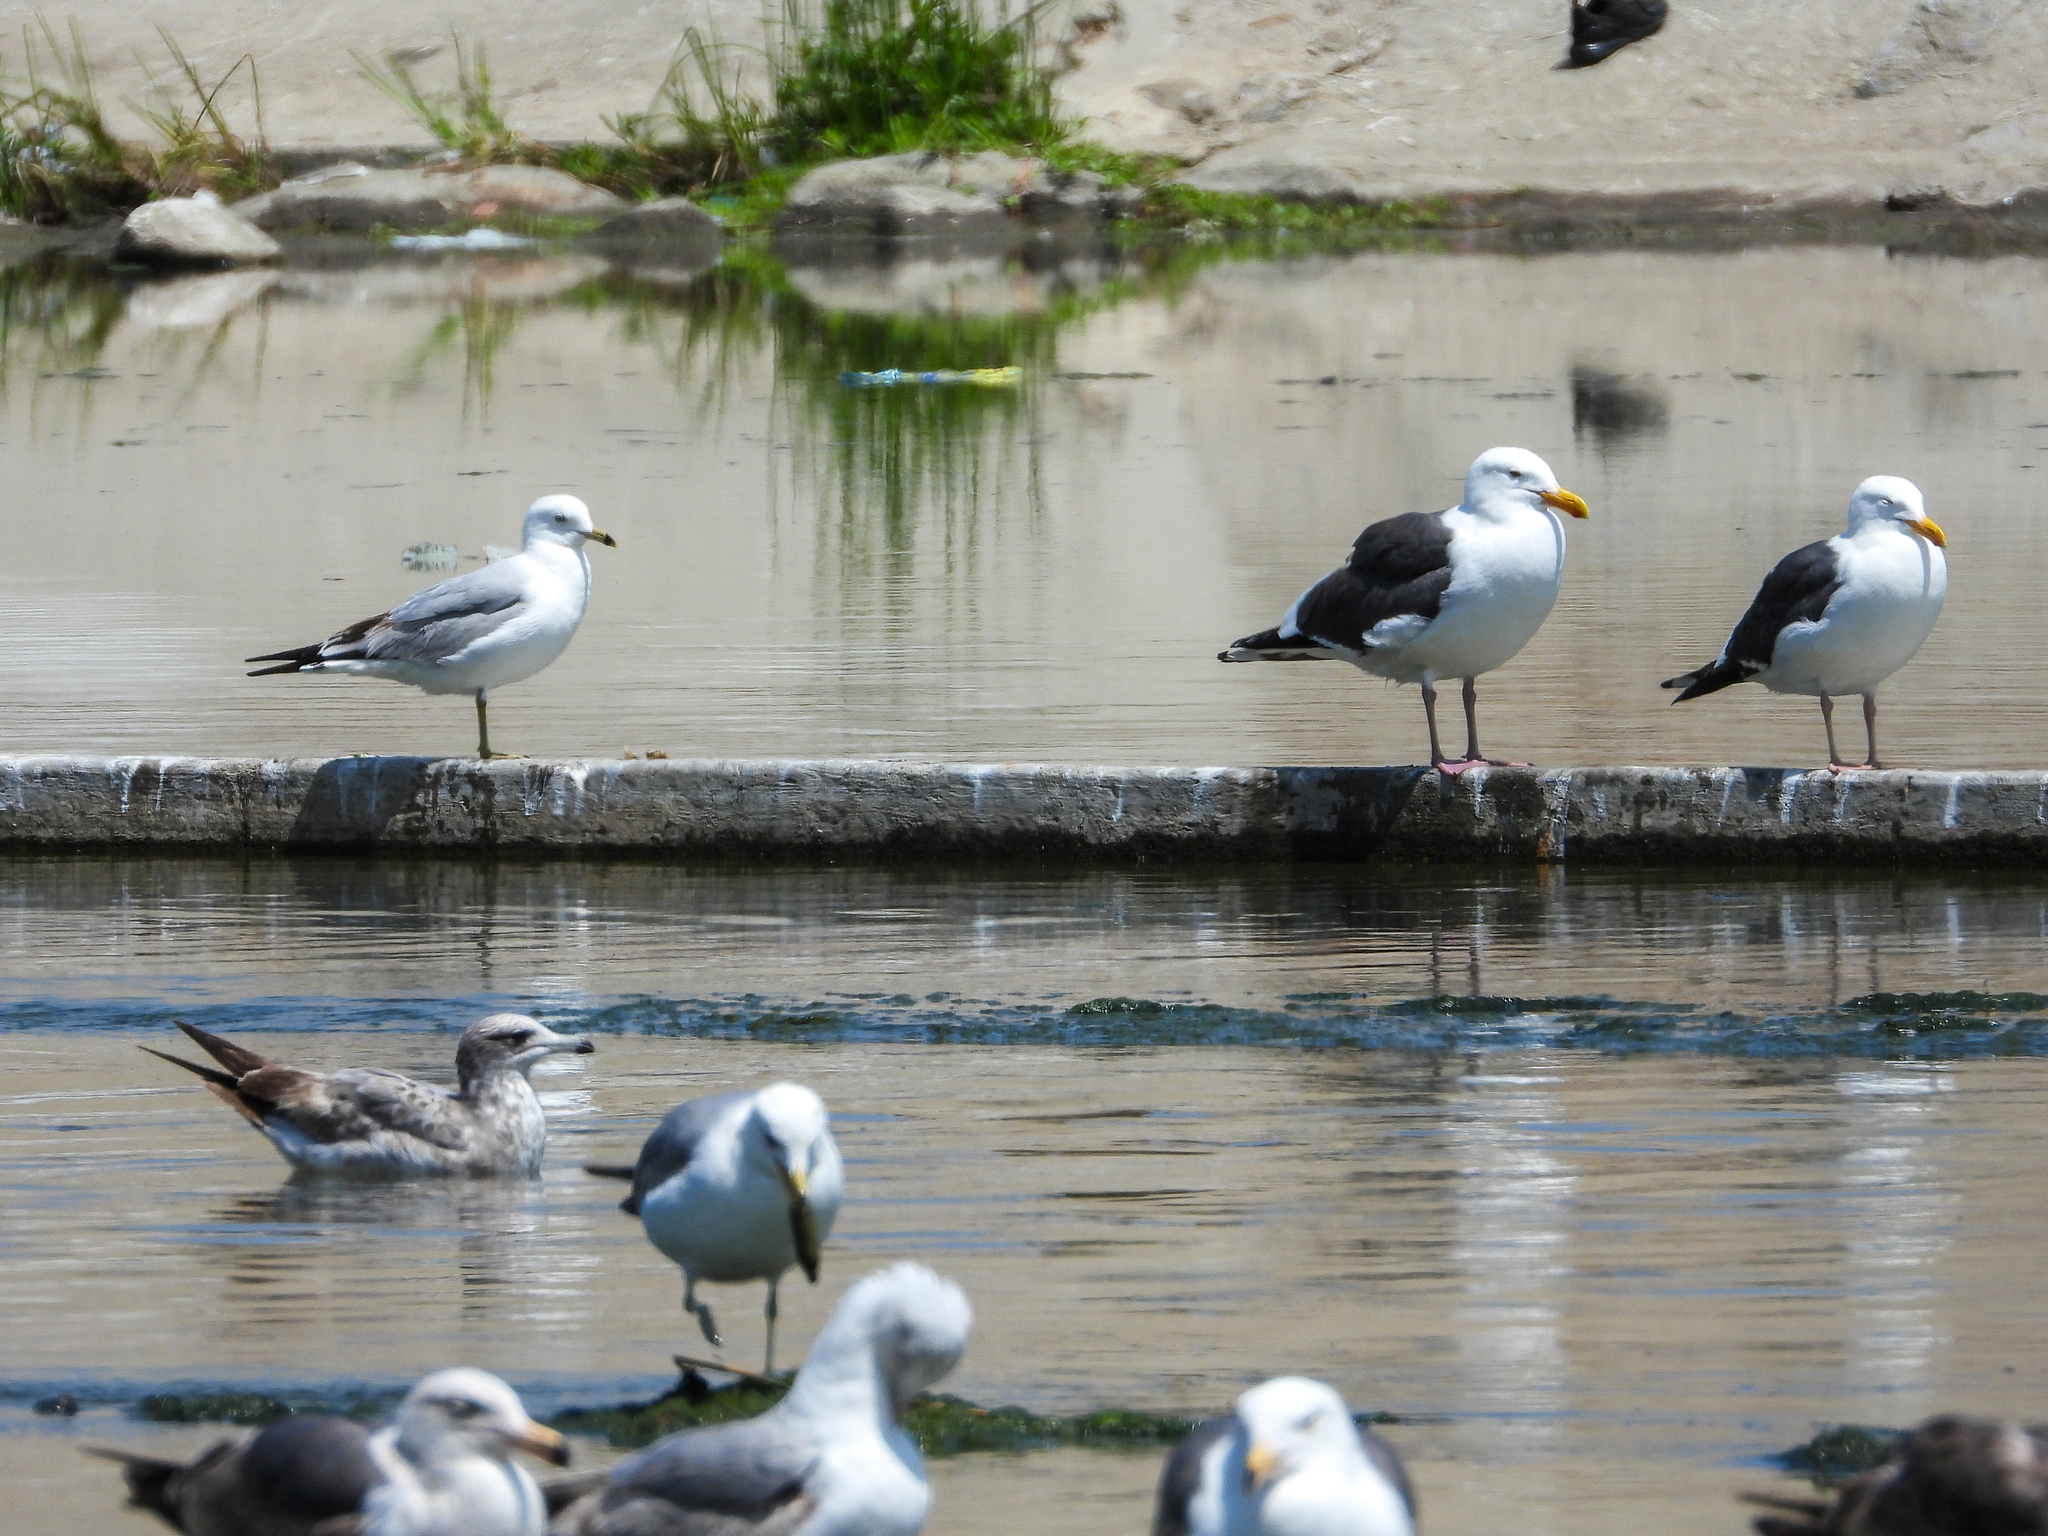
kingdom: Animalia
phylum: Chordata
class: Aves
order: Charadriiformes
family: Laridae
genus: Larus
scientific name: Larus delawarensis
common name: Ring-billed gull
